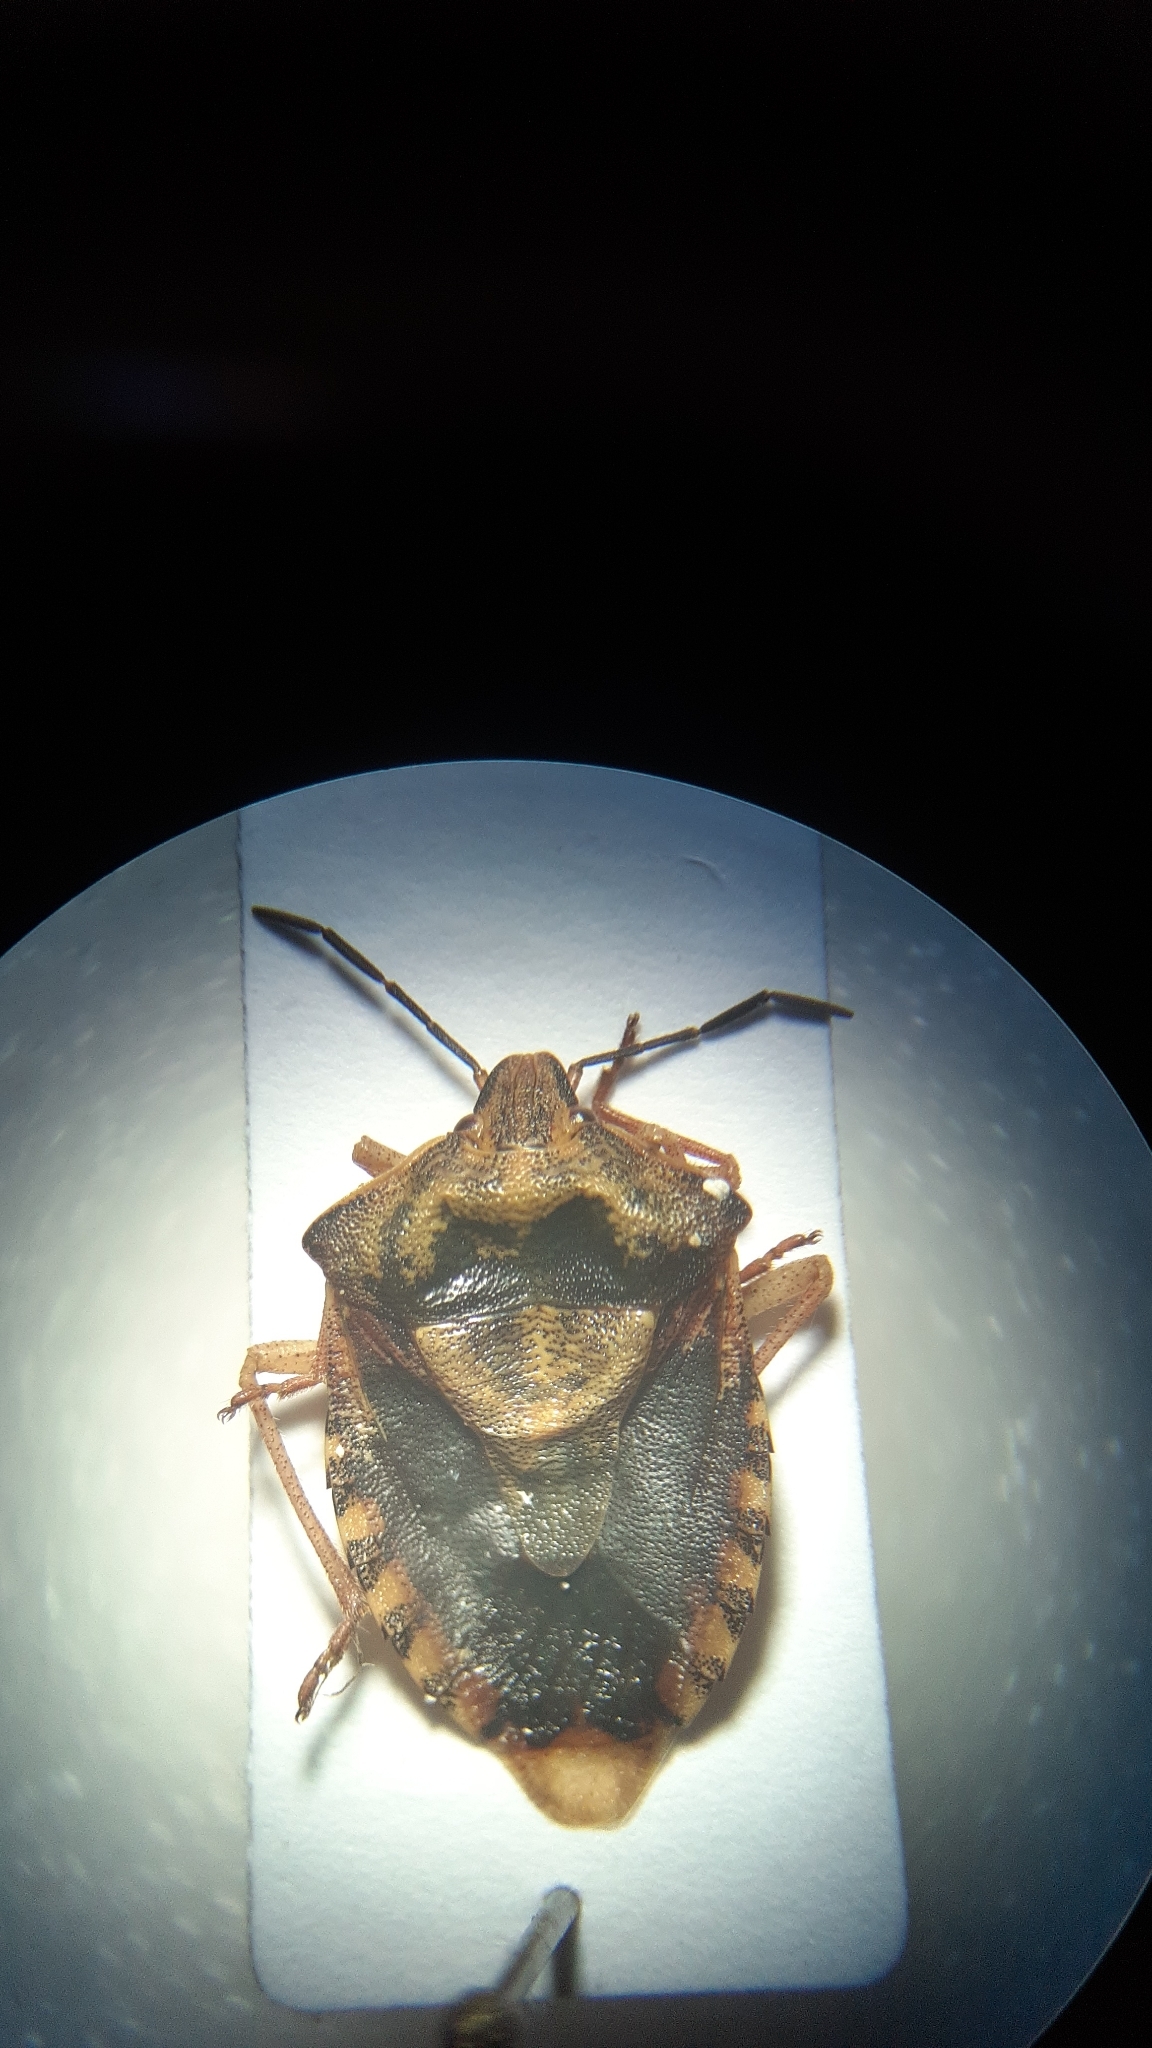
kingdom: Animalia
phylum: Arthropoda
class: Insecta
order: Hemiptera
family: Pentatomidae
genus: Carpocoris
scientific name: Carpocoris purpureipennis
